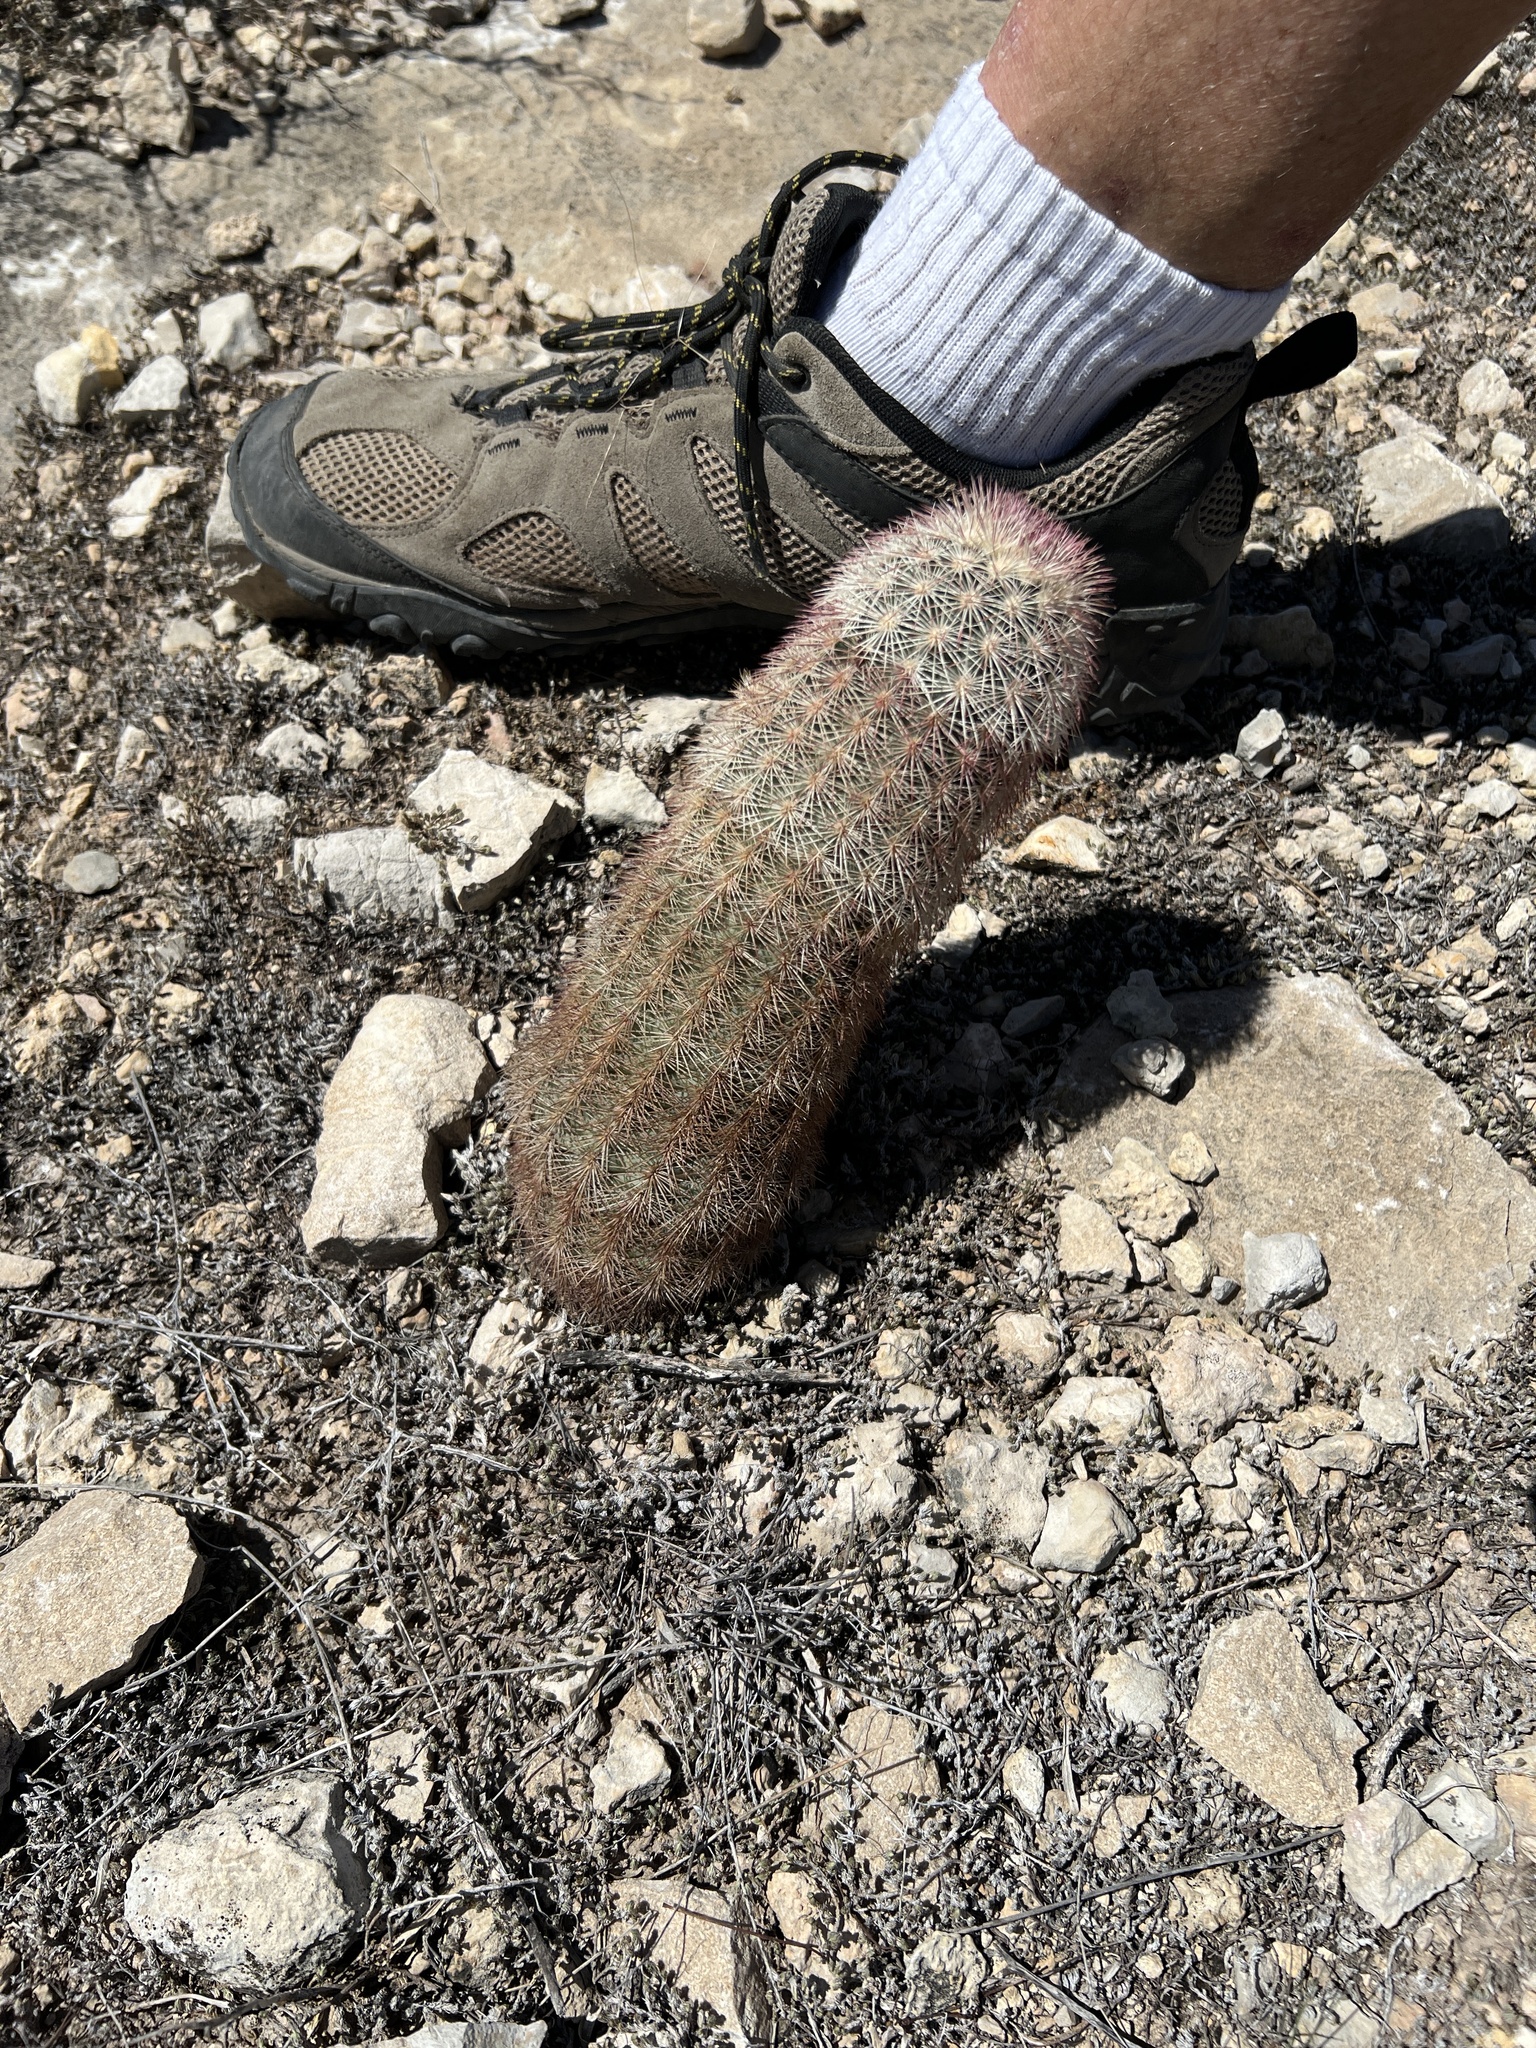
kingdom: Plantae
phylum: Tracheophyta
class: Magnoliopsida
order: Caryophyllales
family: Cactaceae
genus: Echinocereus
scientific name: Echinocereus dasyacanthus
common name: Spiny hedgehog cactus
